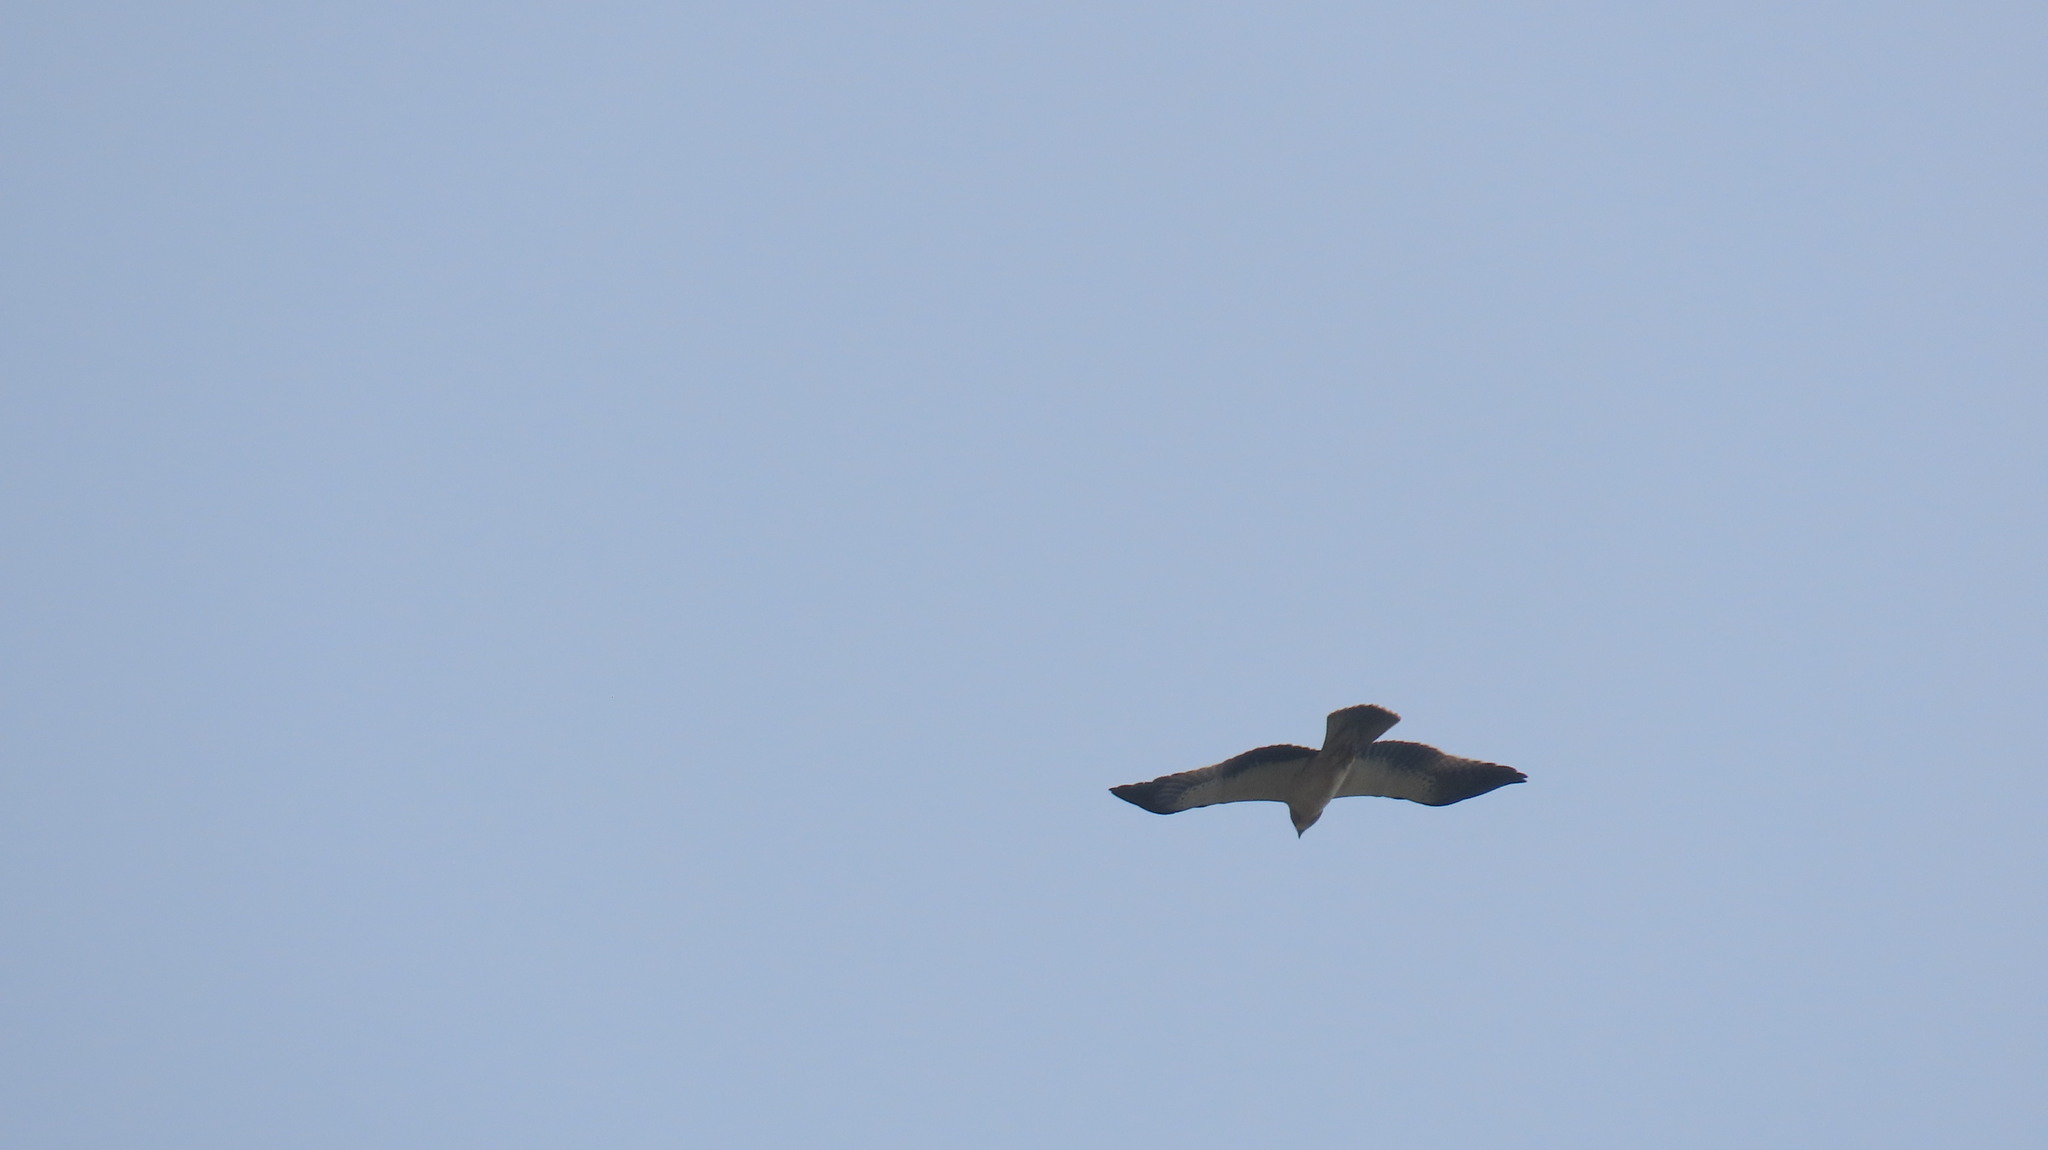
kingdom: Animalia
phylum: Chordata
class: Aves
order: Accipitriformes
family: Accipitridae
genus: Hieraaetus
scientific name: Hieraaetus pennatus
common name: Booted eagle
